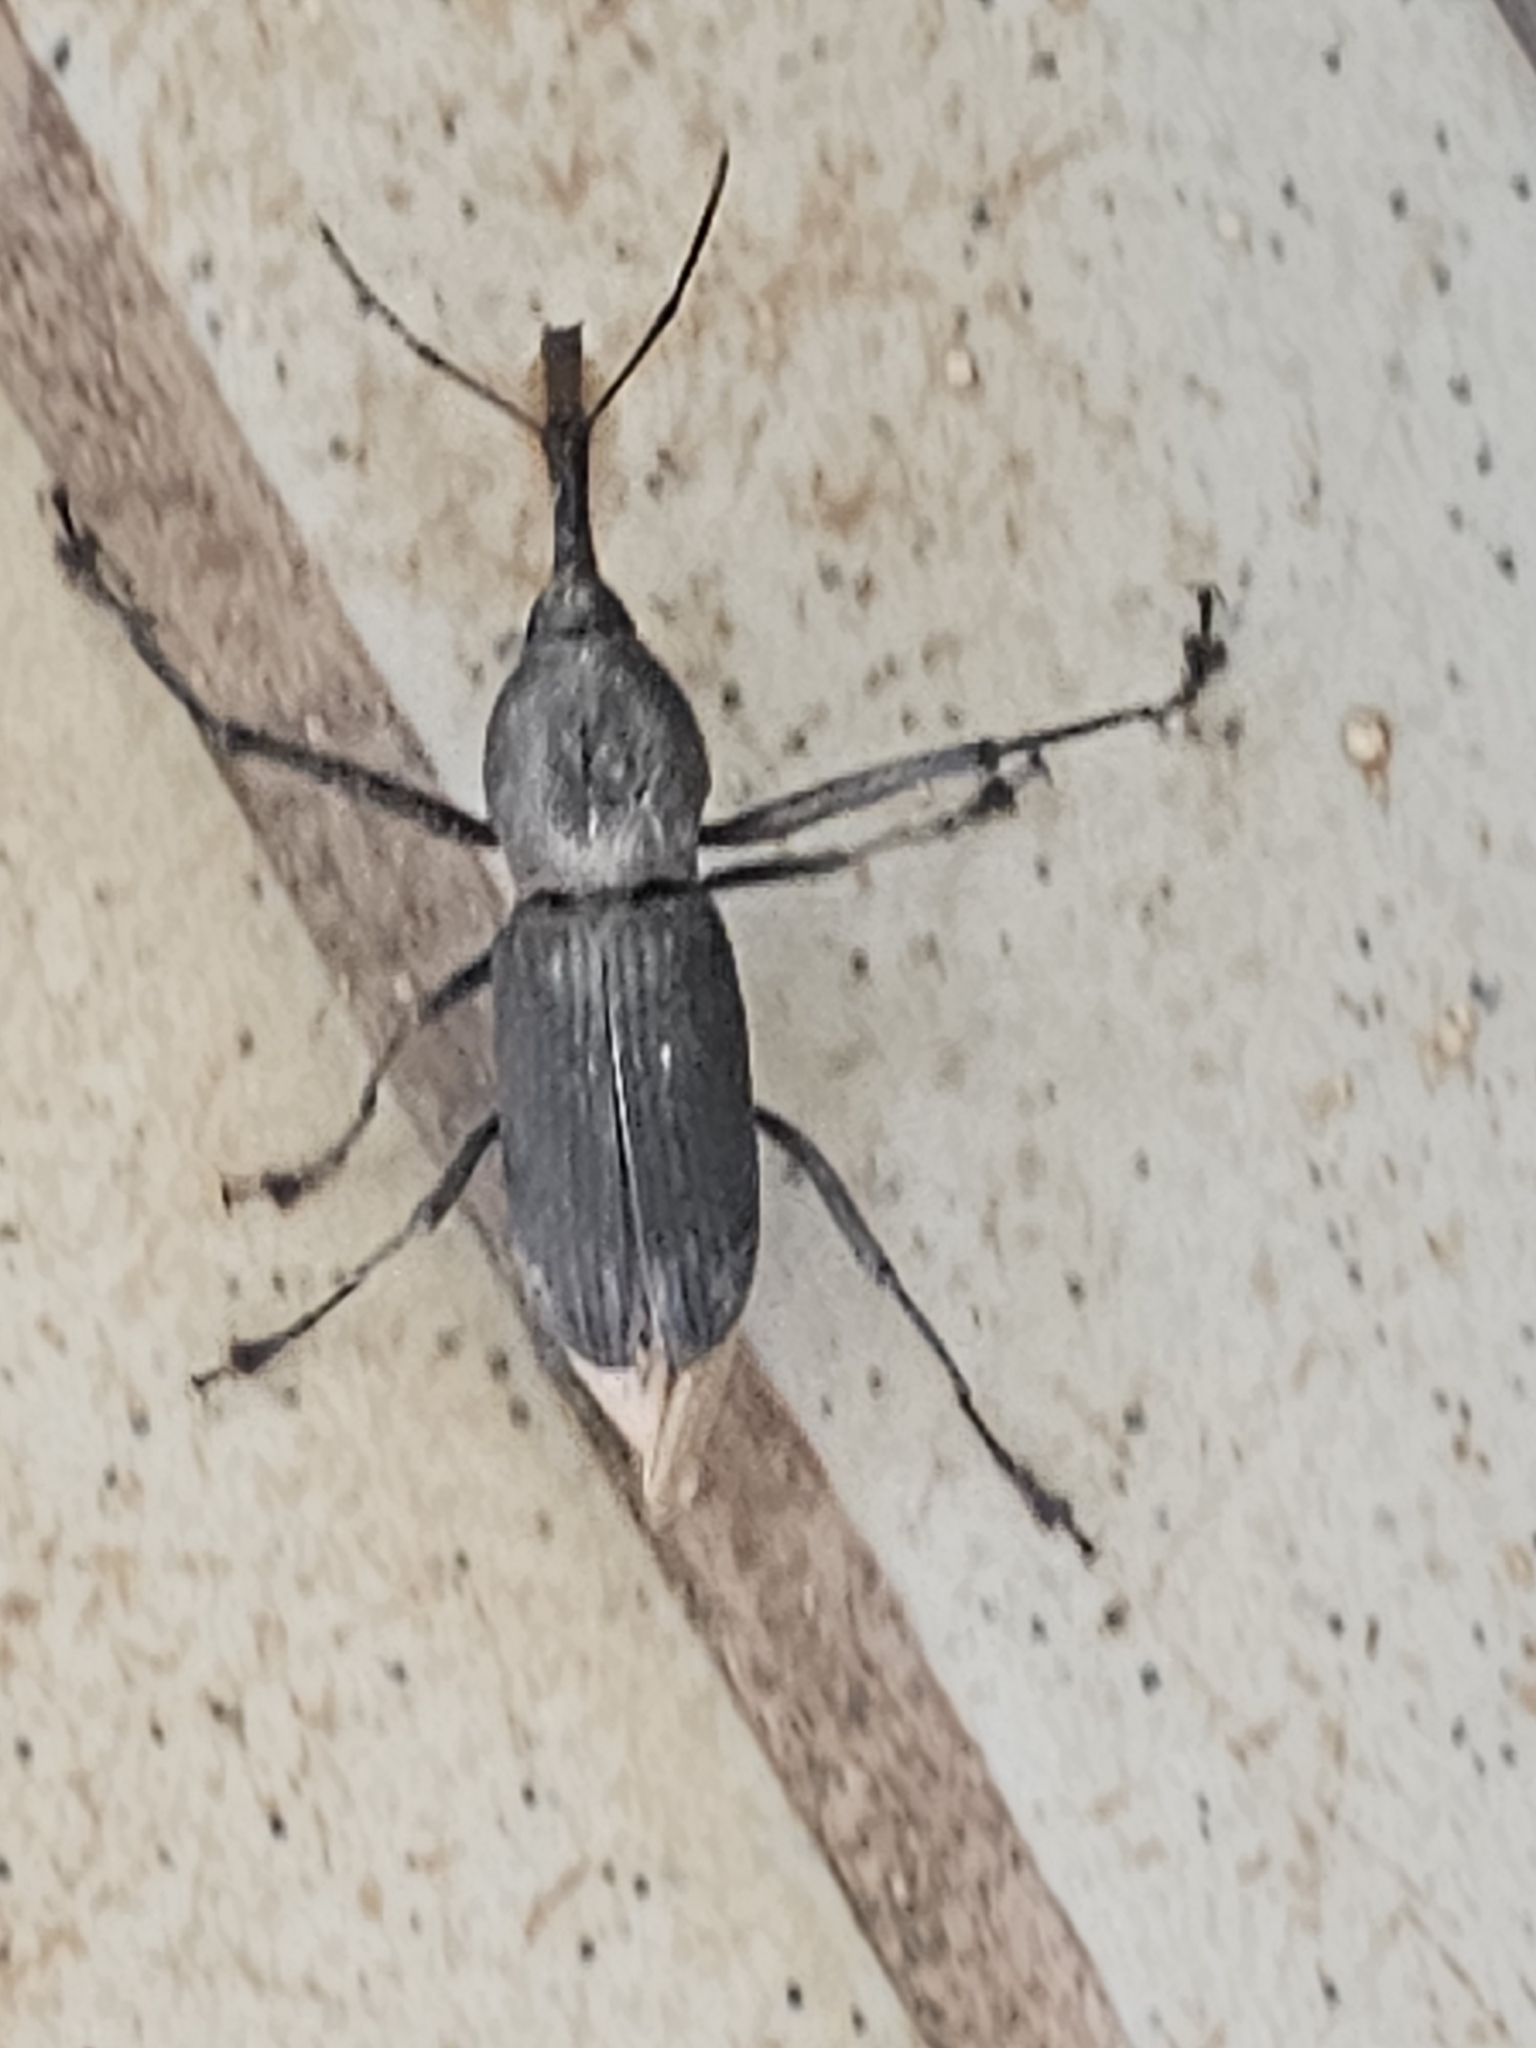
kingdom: Animalia
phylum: Arthropoda
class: Insecta
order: Coleoptera
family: Dryophthoridae
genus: Rhinostomus
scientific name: Rhinostomus barbirostris
